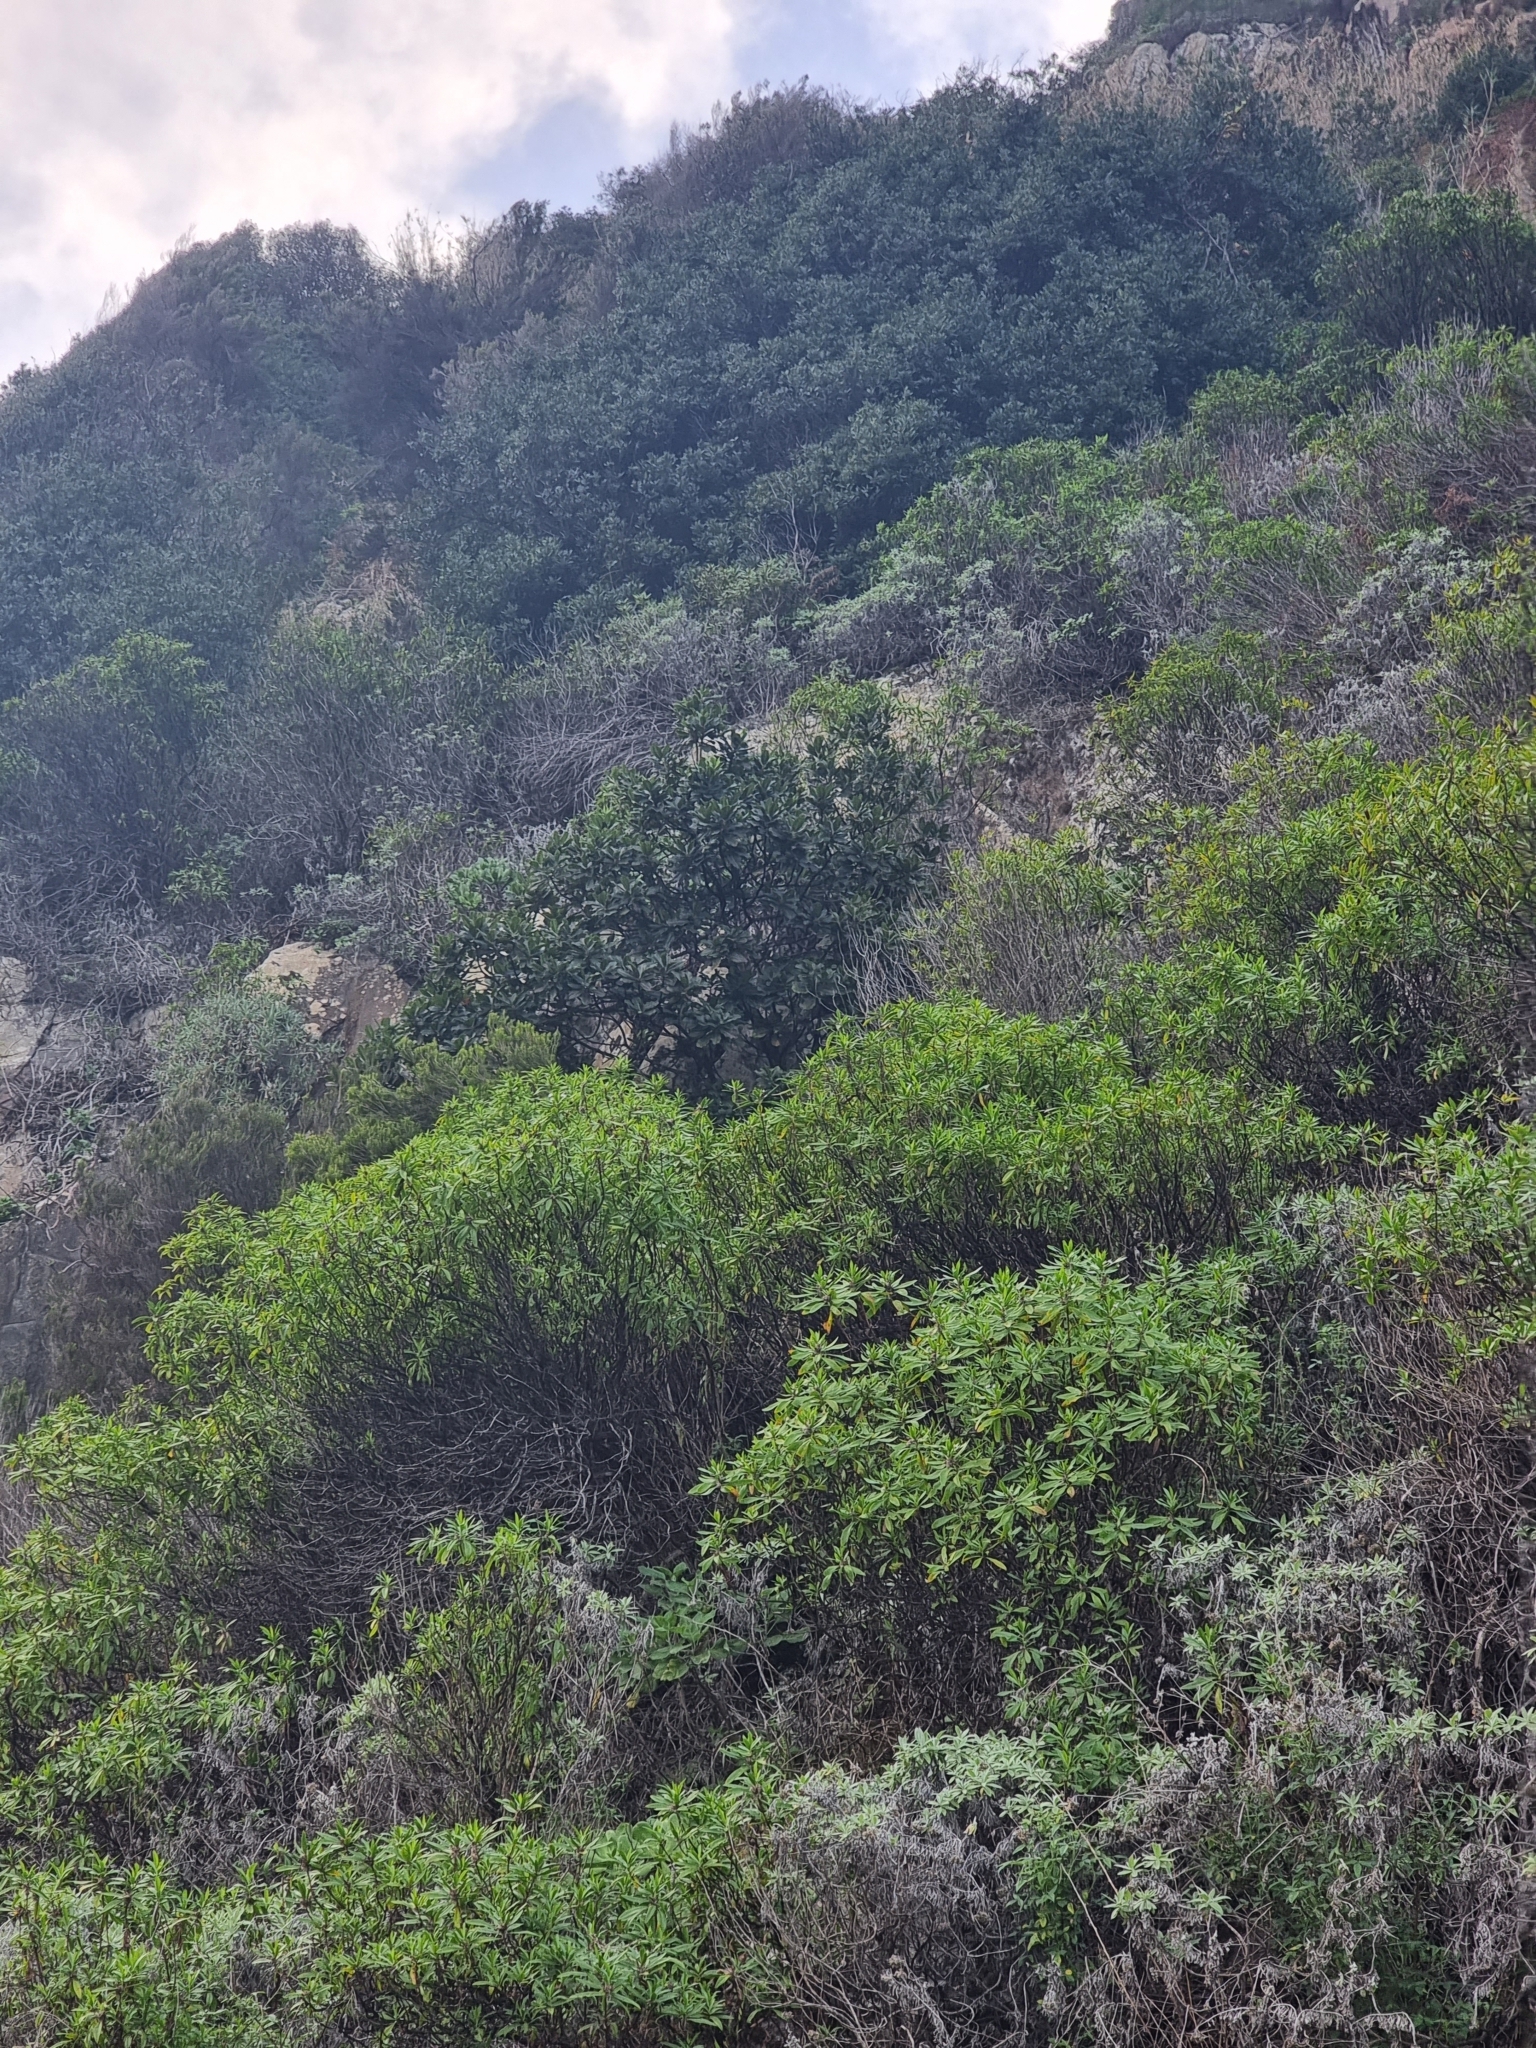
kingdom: Plantae
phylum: Tracheophyta
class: Magnoliopsida
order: Ericales
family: Sapotaceae
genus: Sideroxylon
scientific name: Sideroxylon mirmulans
